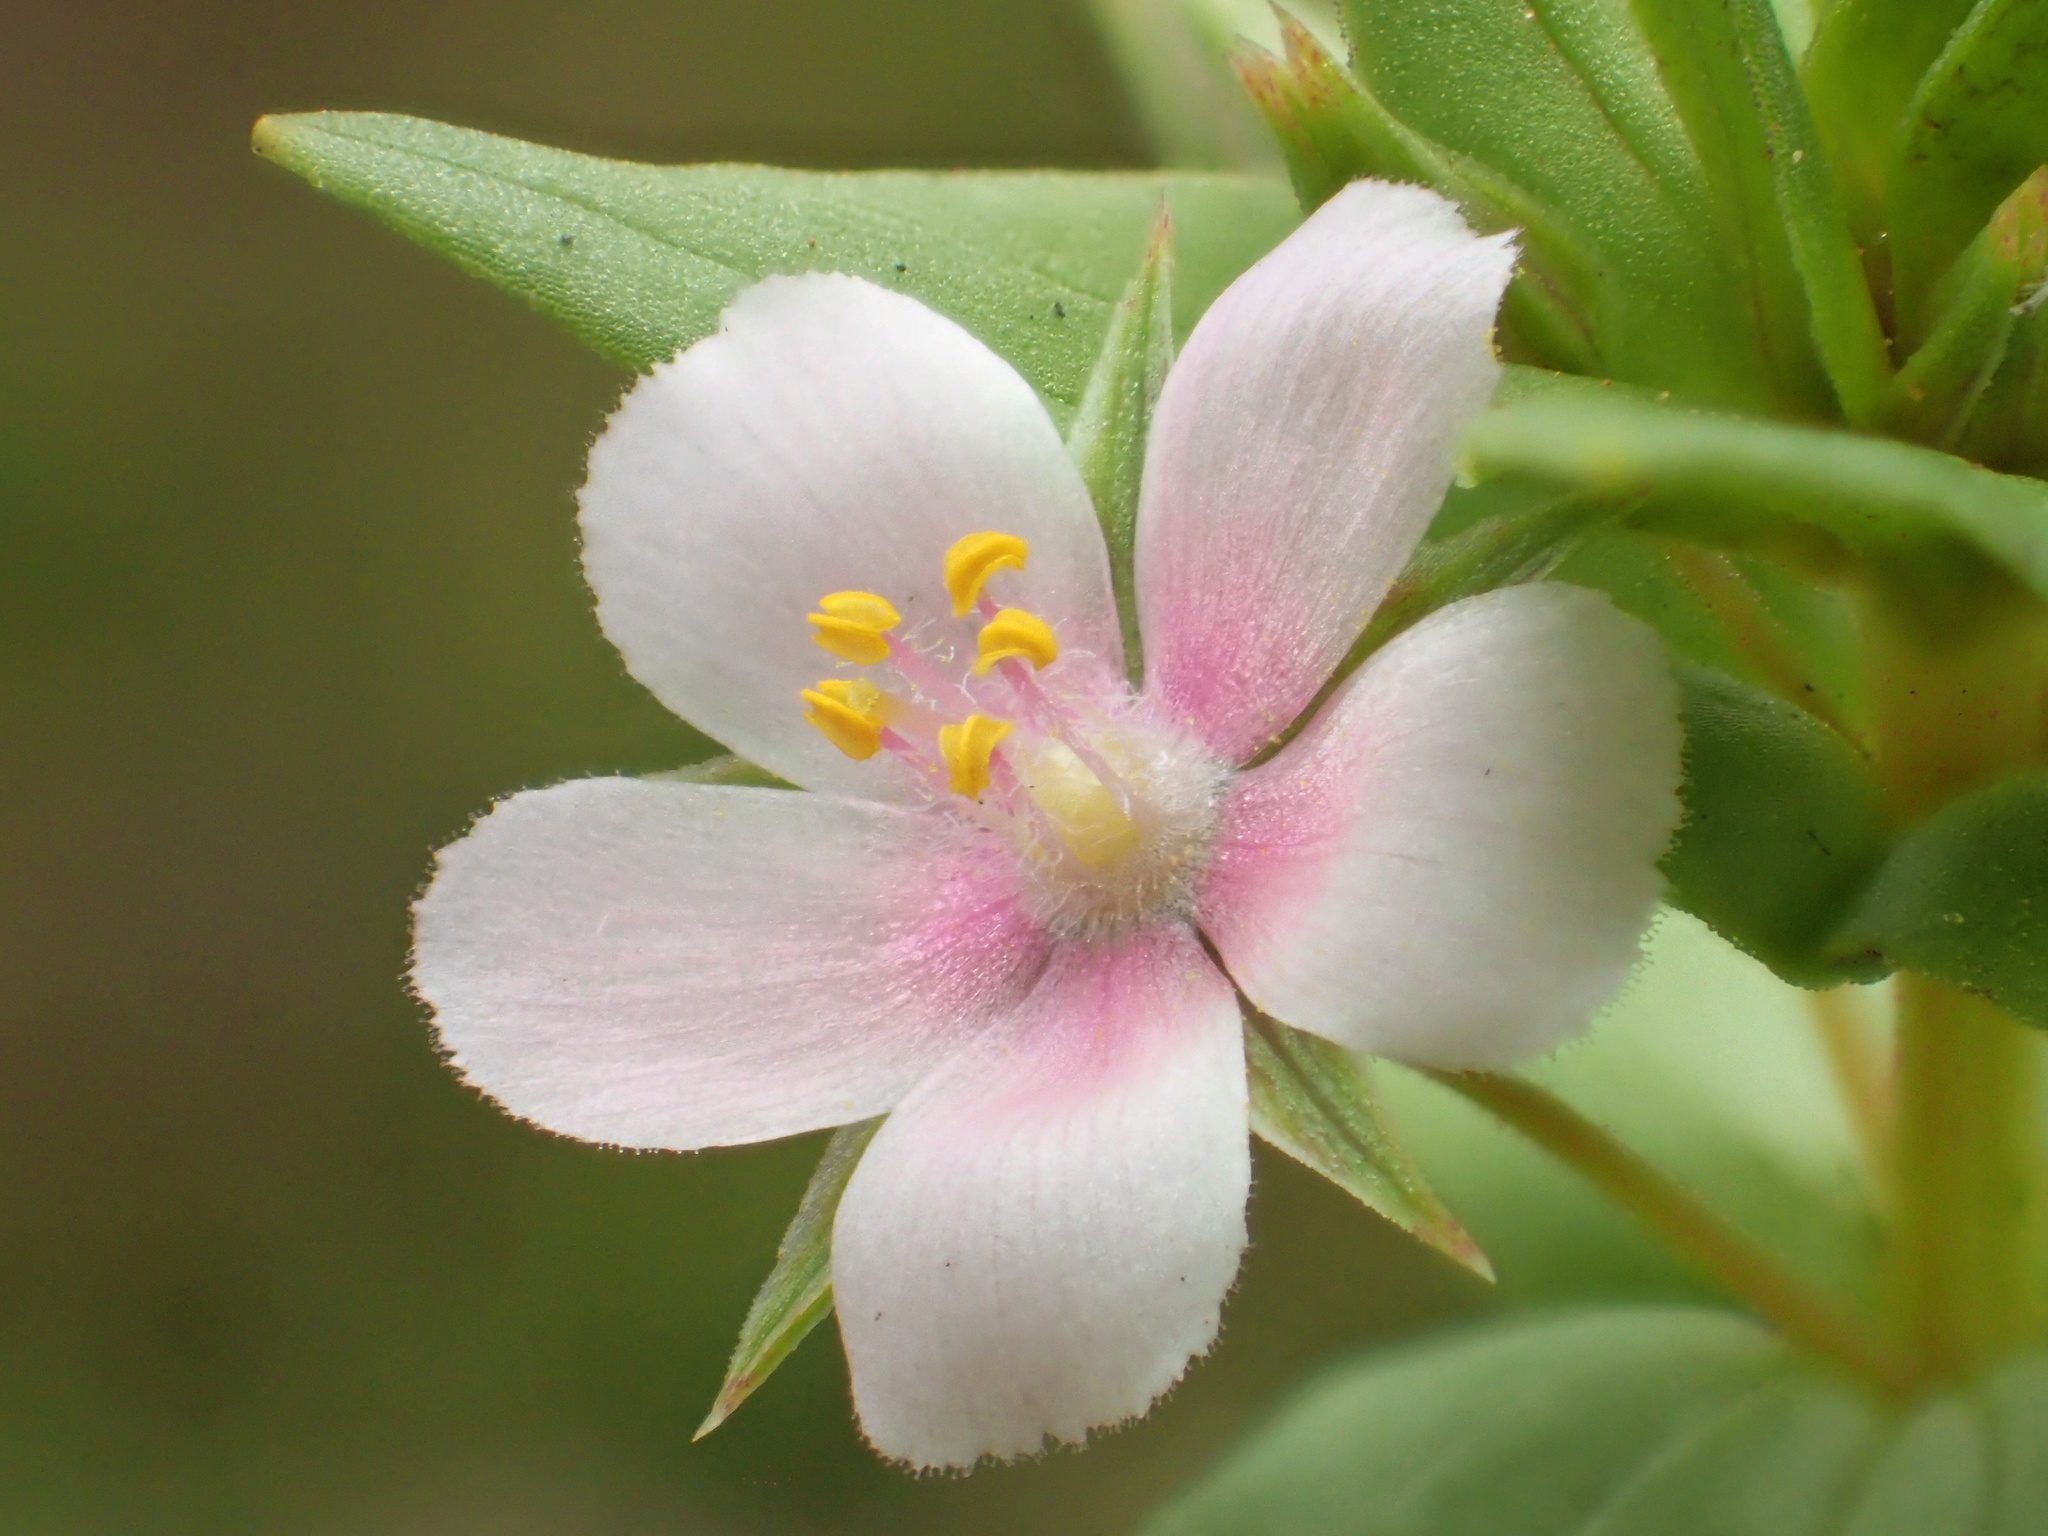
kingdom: Plantae
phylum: Tracheophyta
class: Magnoliopsida
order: Ericales
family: Primulaceae
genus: Lysimachia
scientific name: Lysimachia loeflingii
